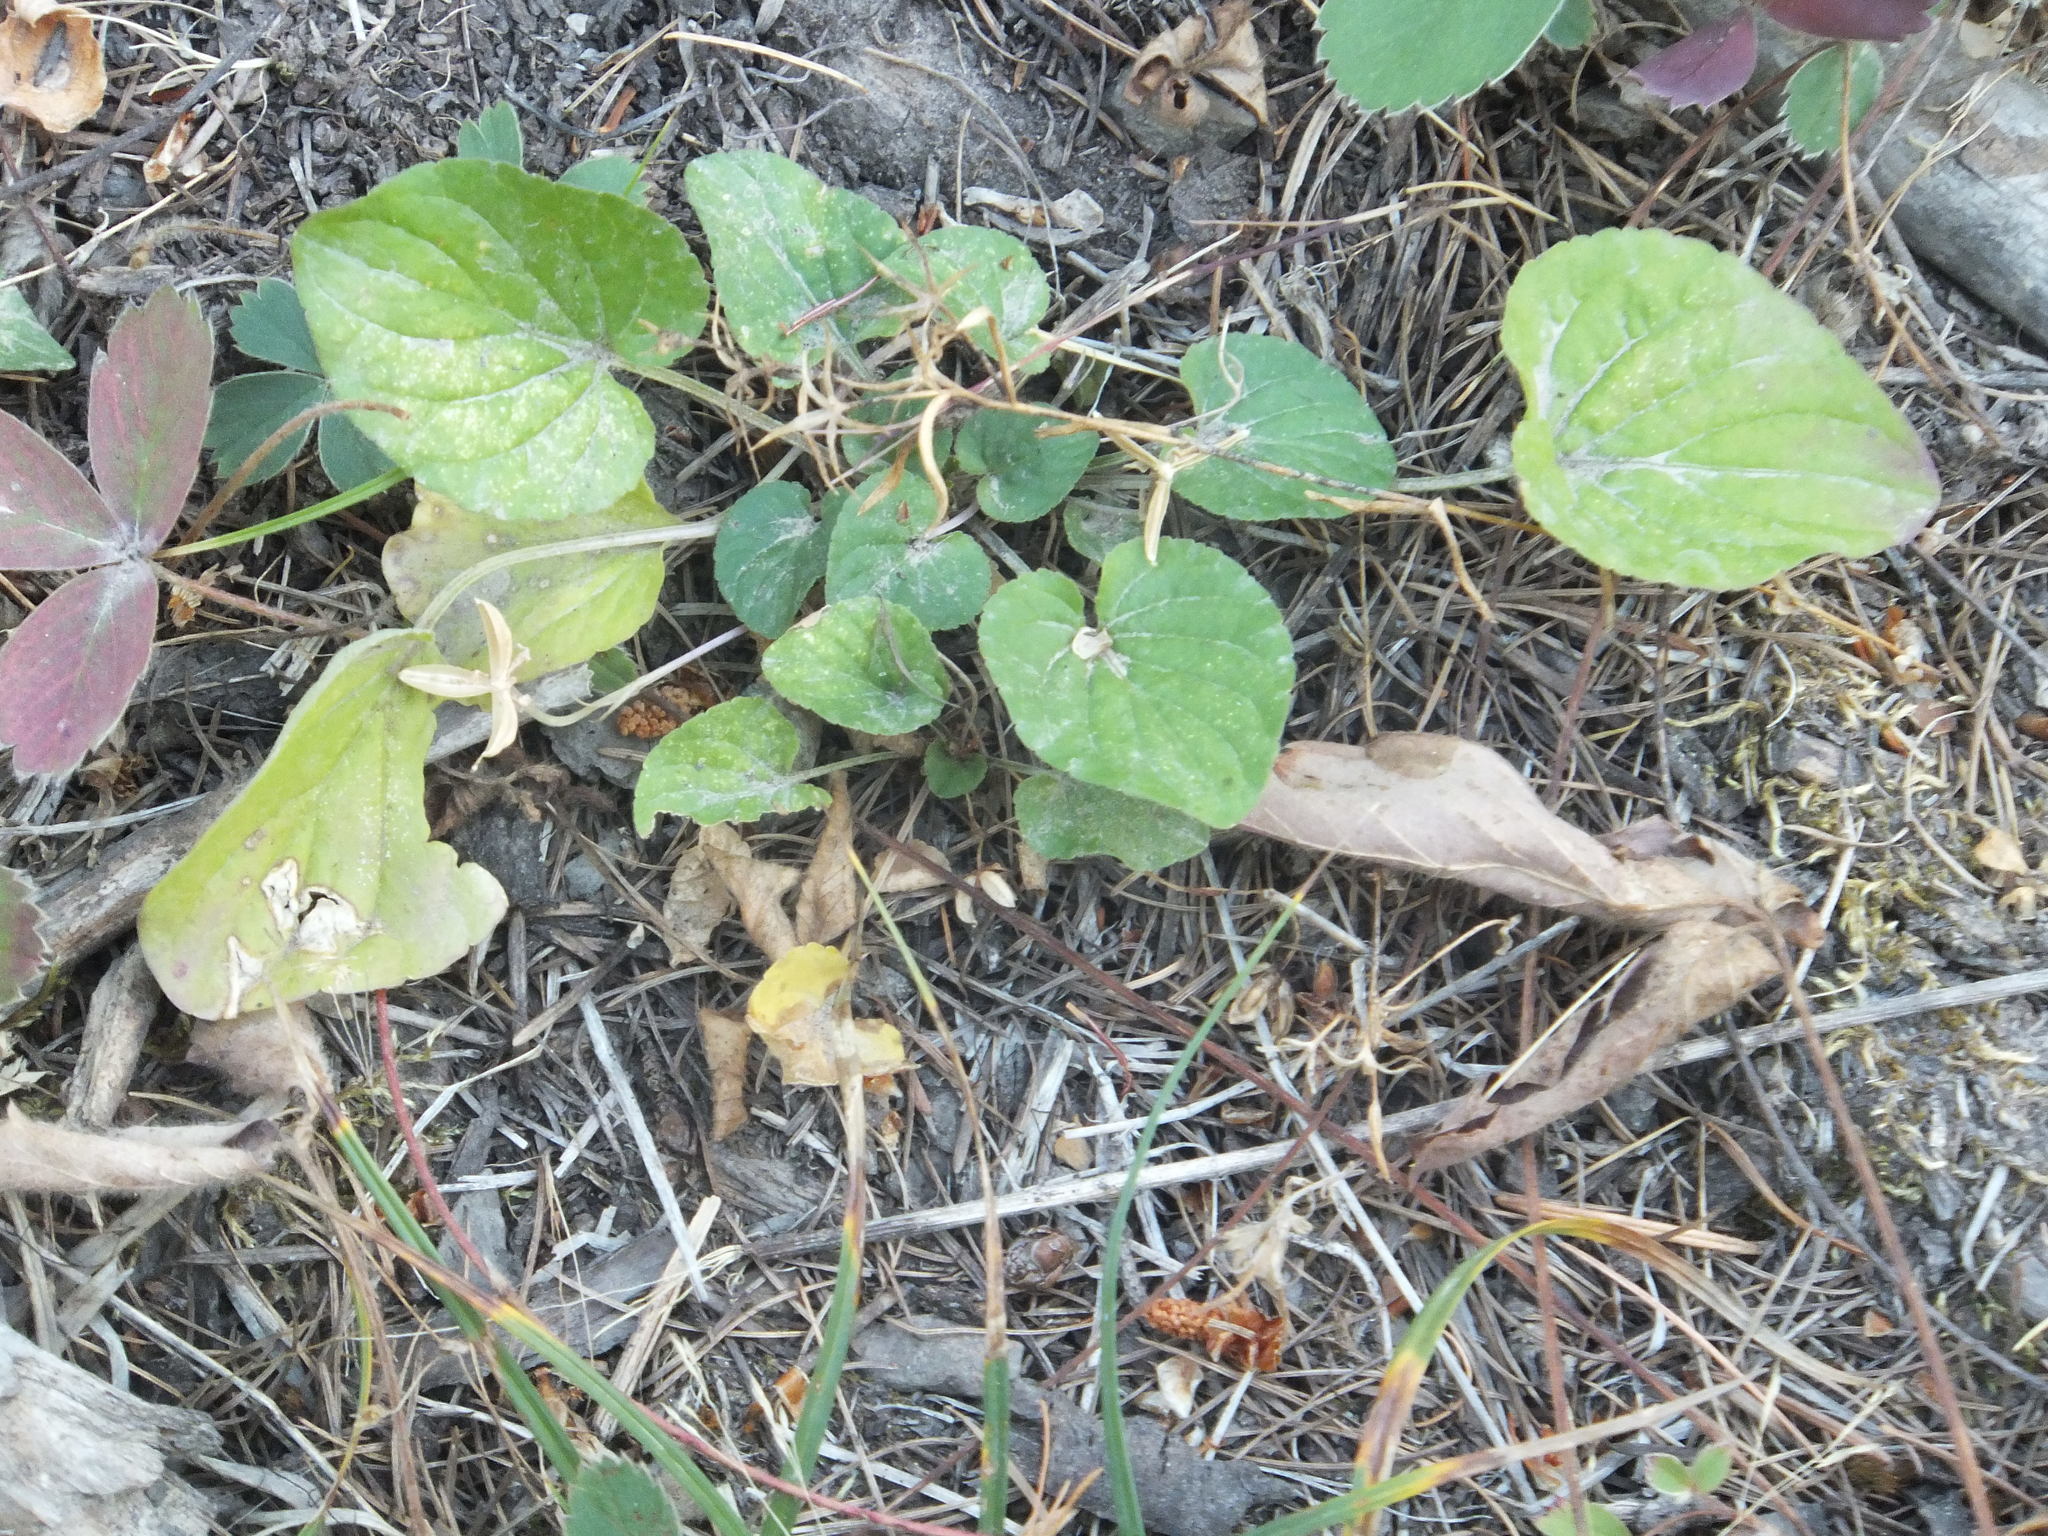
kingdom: Plantae
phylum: Tracheophyta
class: Magnoliopsida
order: Malpighiales
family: Violaceae
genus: Viola
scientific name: Viola adunca
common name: Sand violet
